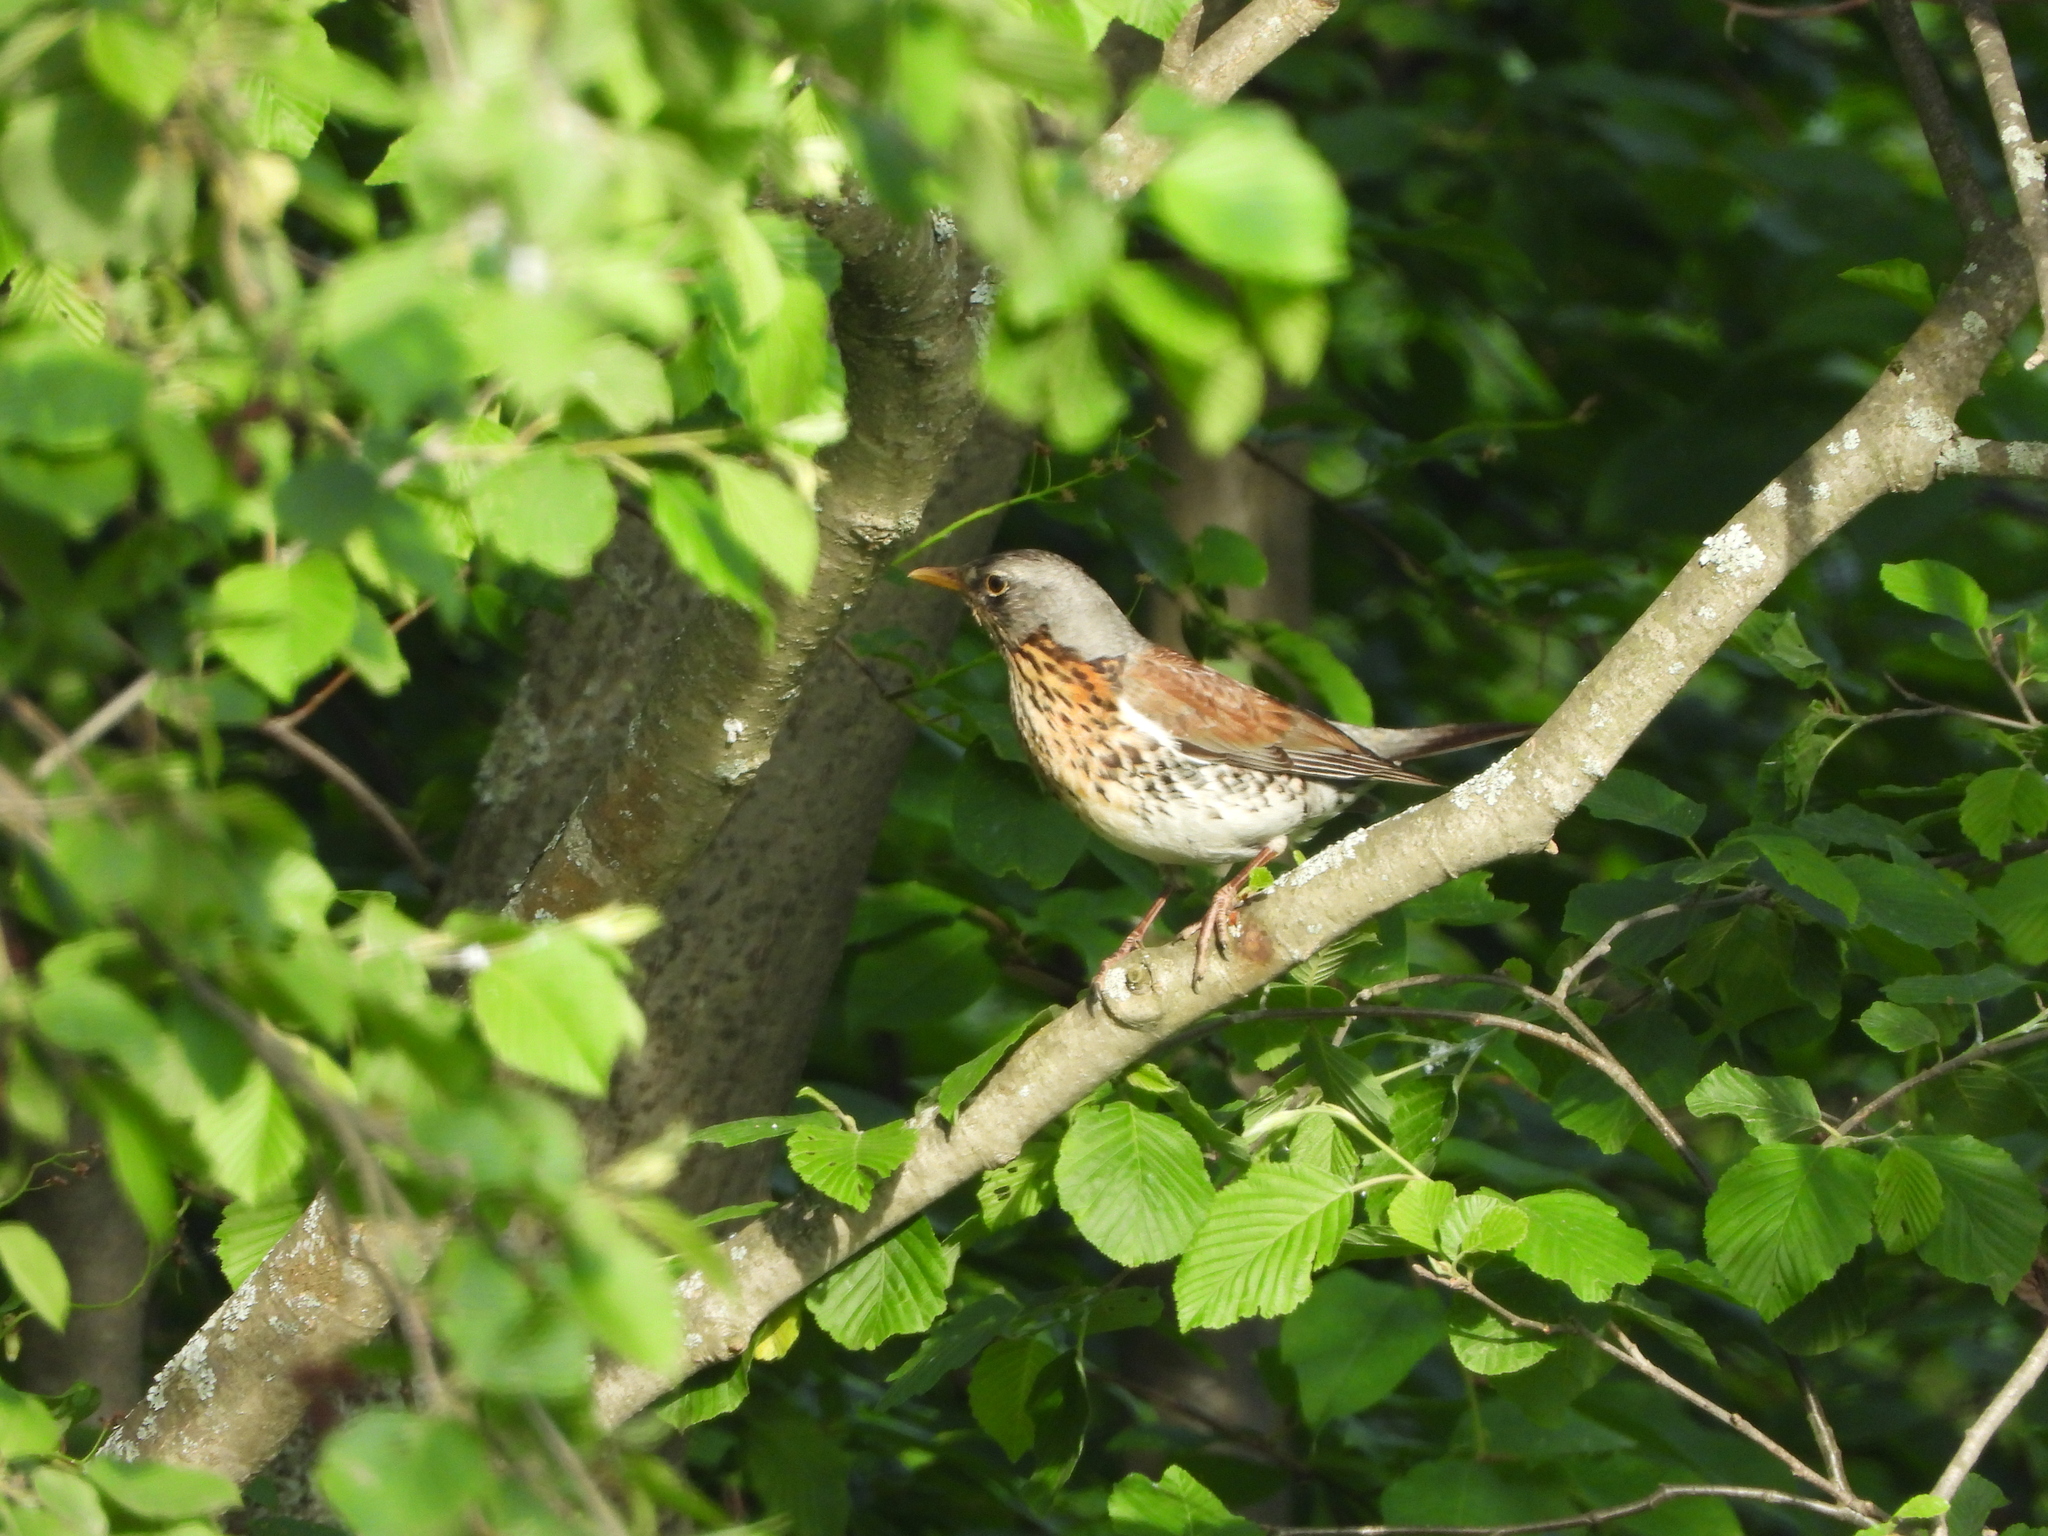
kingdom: Animalia
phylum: Chordata
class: Aves
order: Passeriformes
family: Turdidae
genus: Turdus
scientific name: Turdus pilaris
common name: Fieldfare
